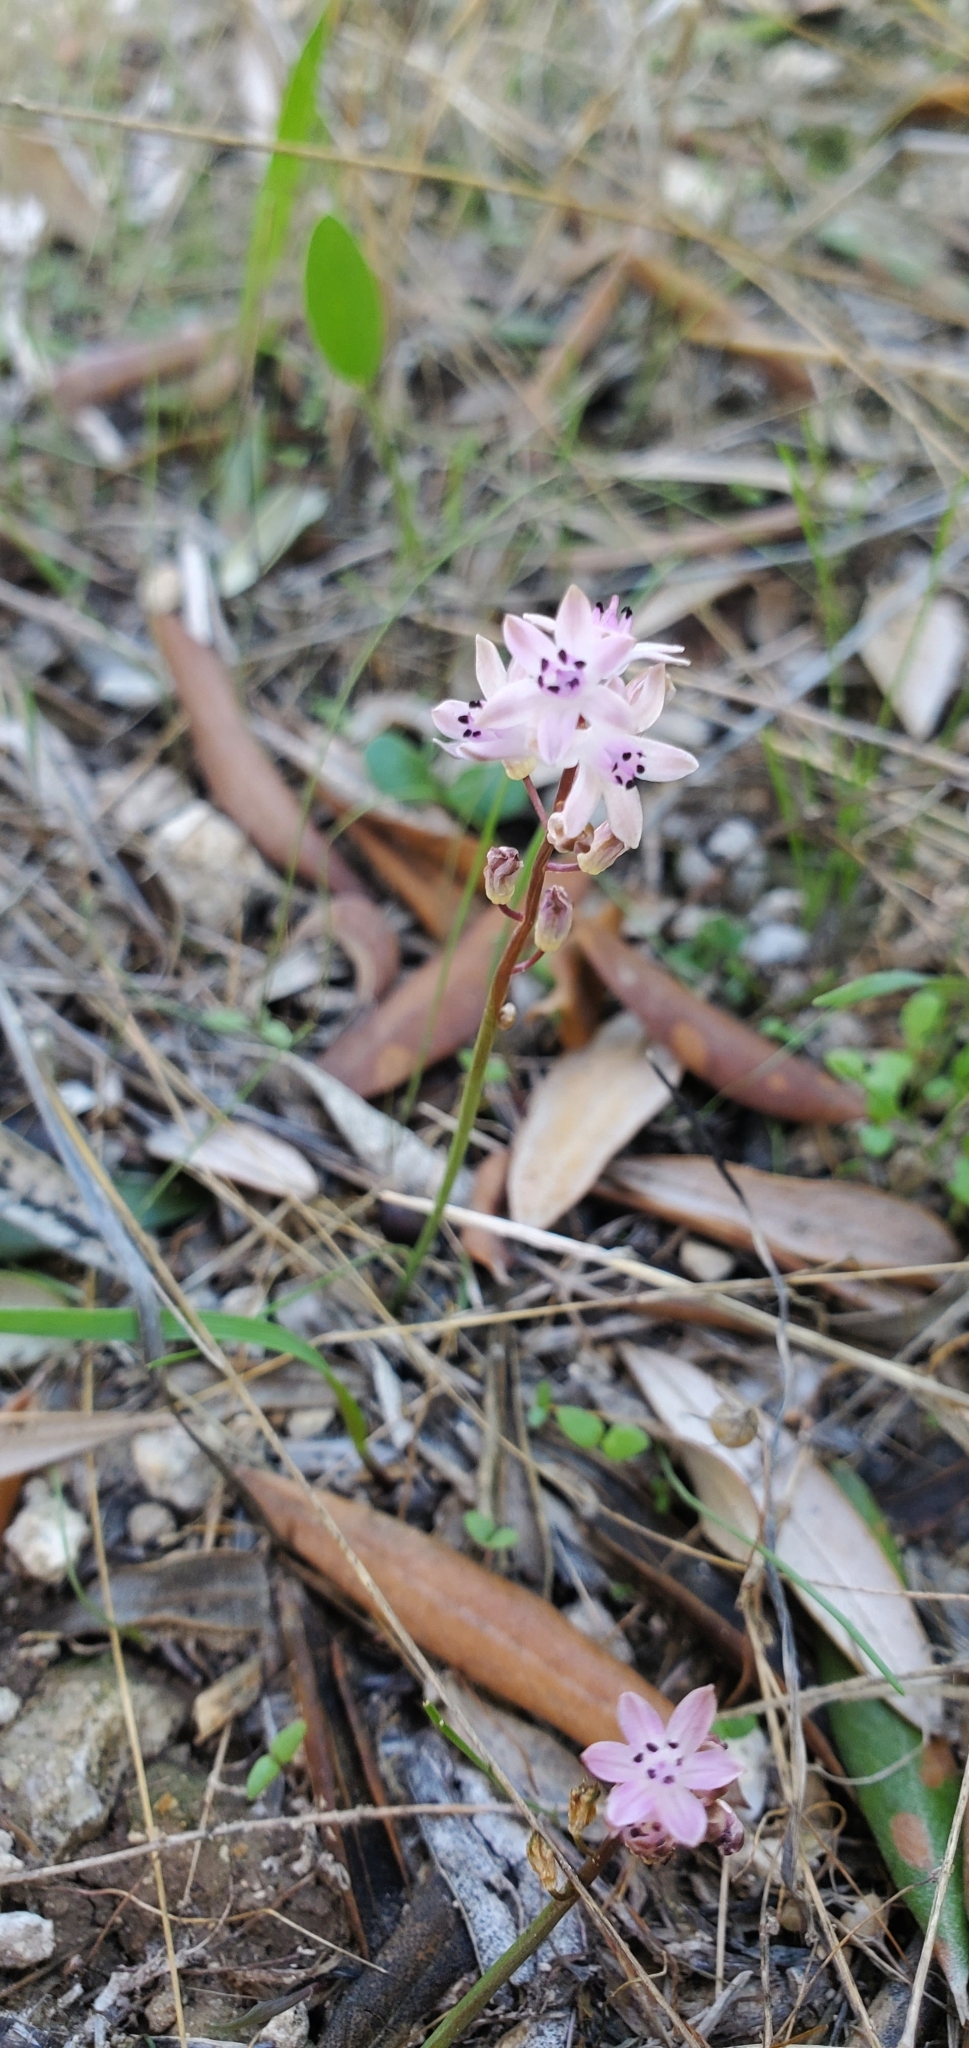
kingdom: Plantae
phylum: Tracheophyta
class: Liliopsida
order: Asparagales
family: Asparagaceae
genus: Prospero
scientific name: Prospero autumnale
